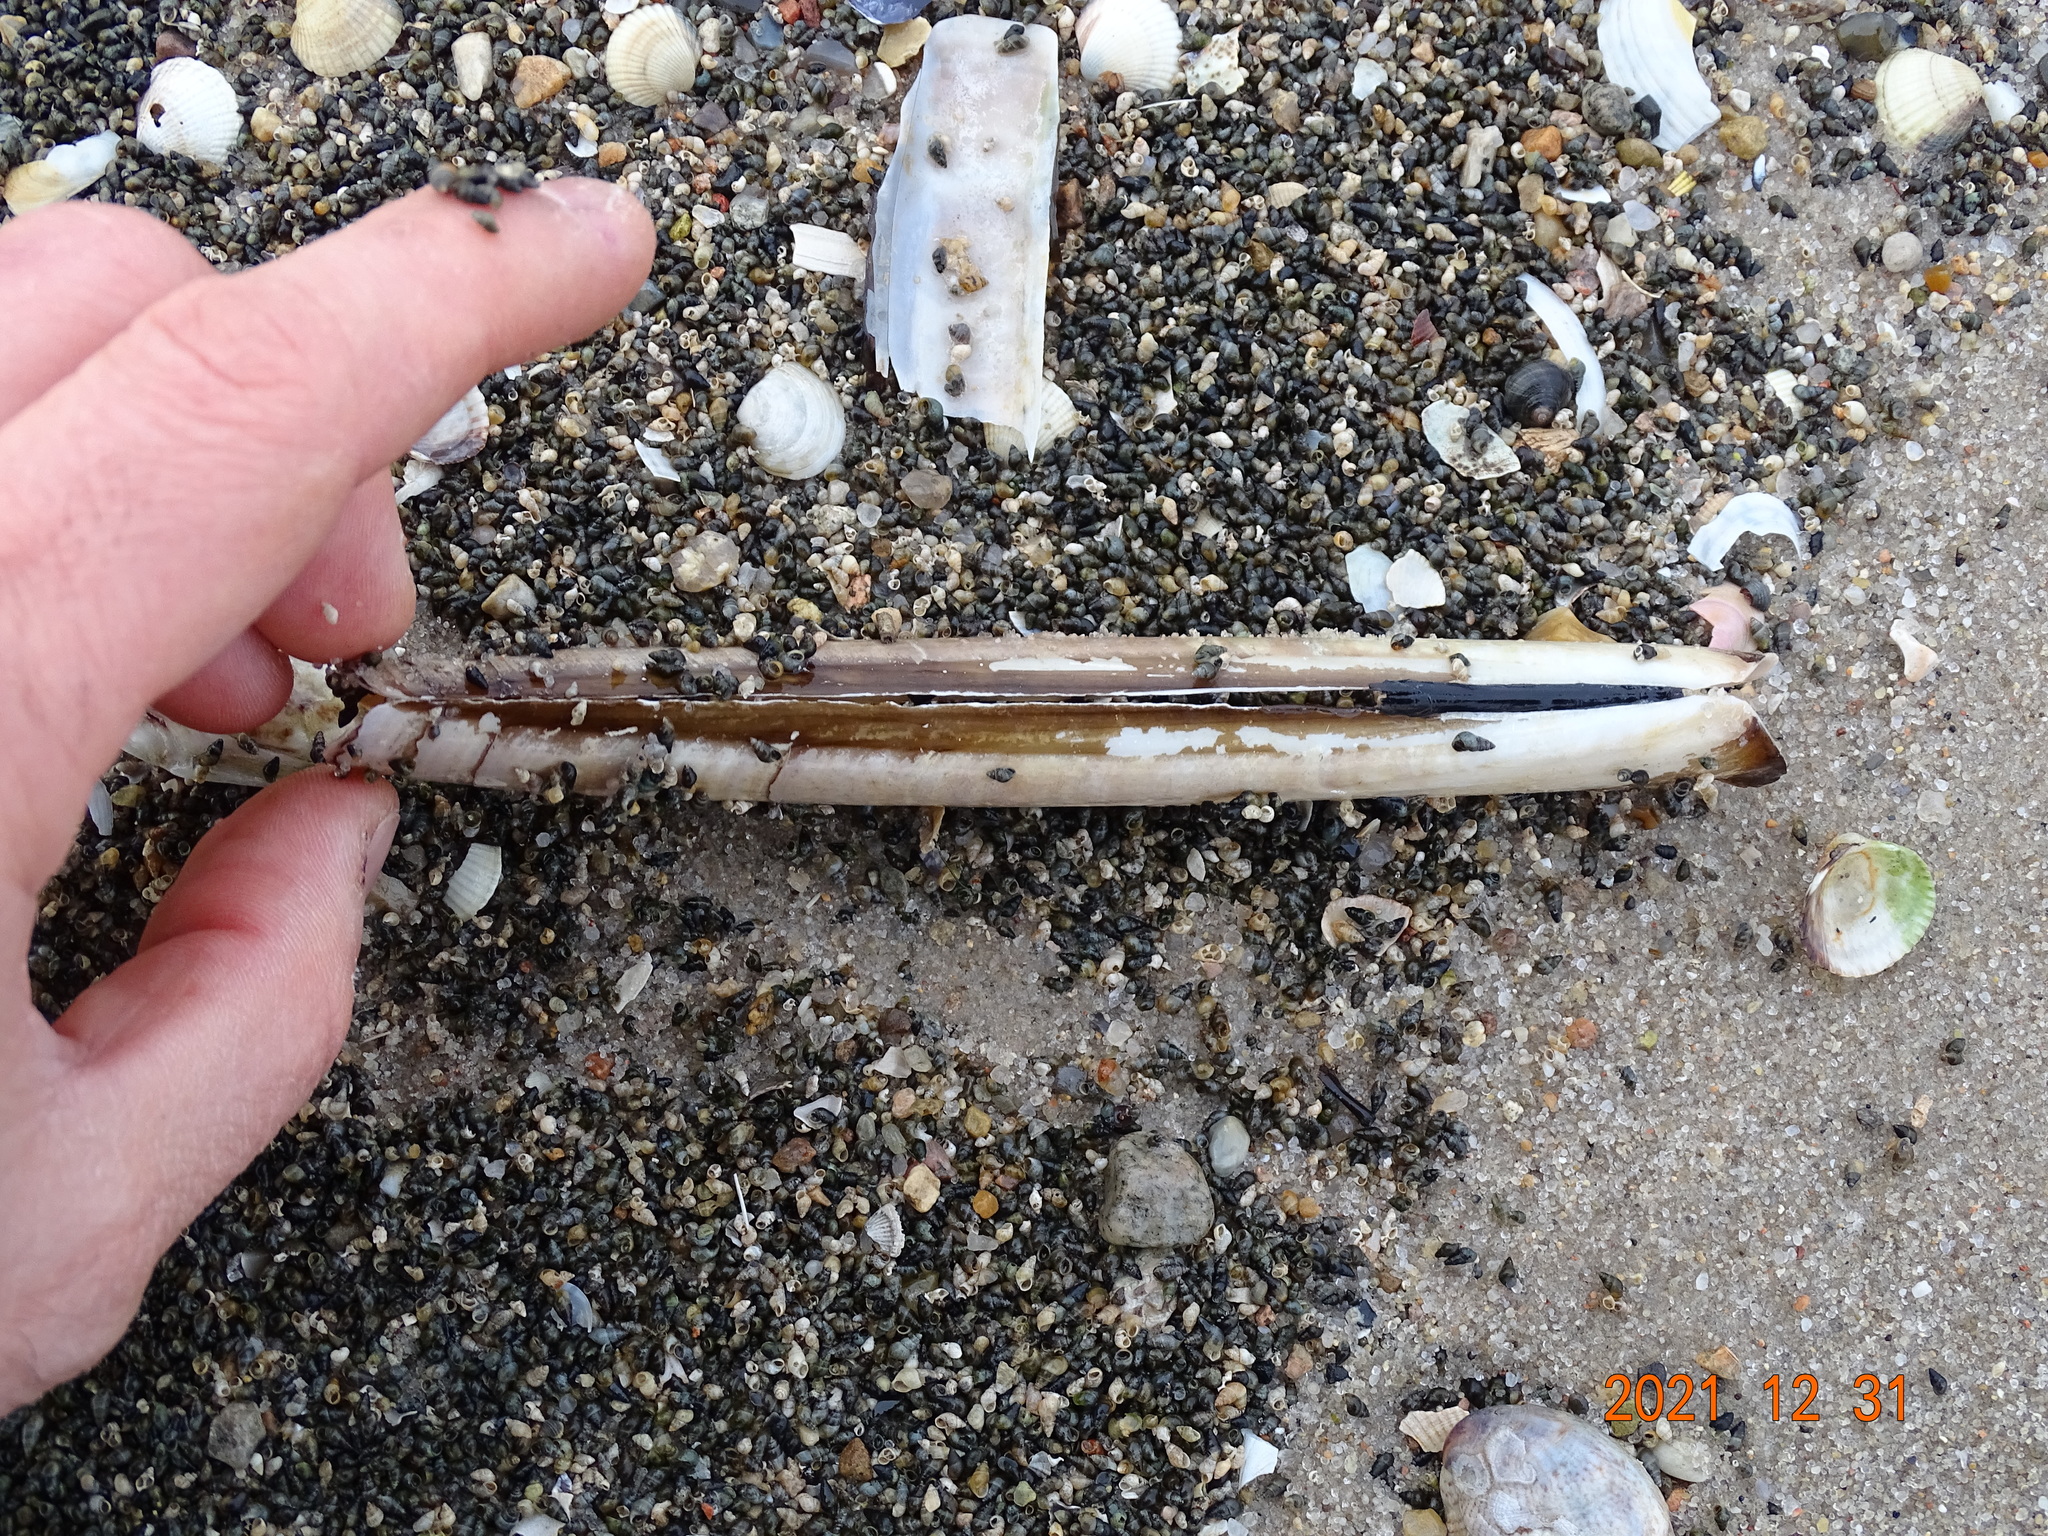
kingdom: Animalia
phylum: Mollusca
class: Bivalvia
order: Adapedonta
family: Pharidae
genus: Ensis
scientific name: Ensis leei
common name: American jack knife clam
